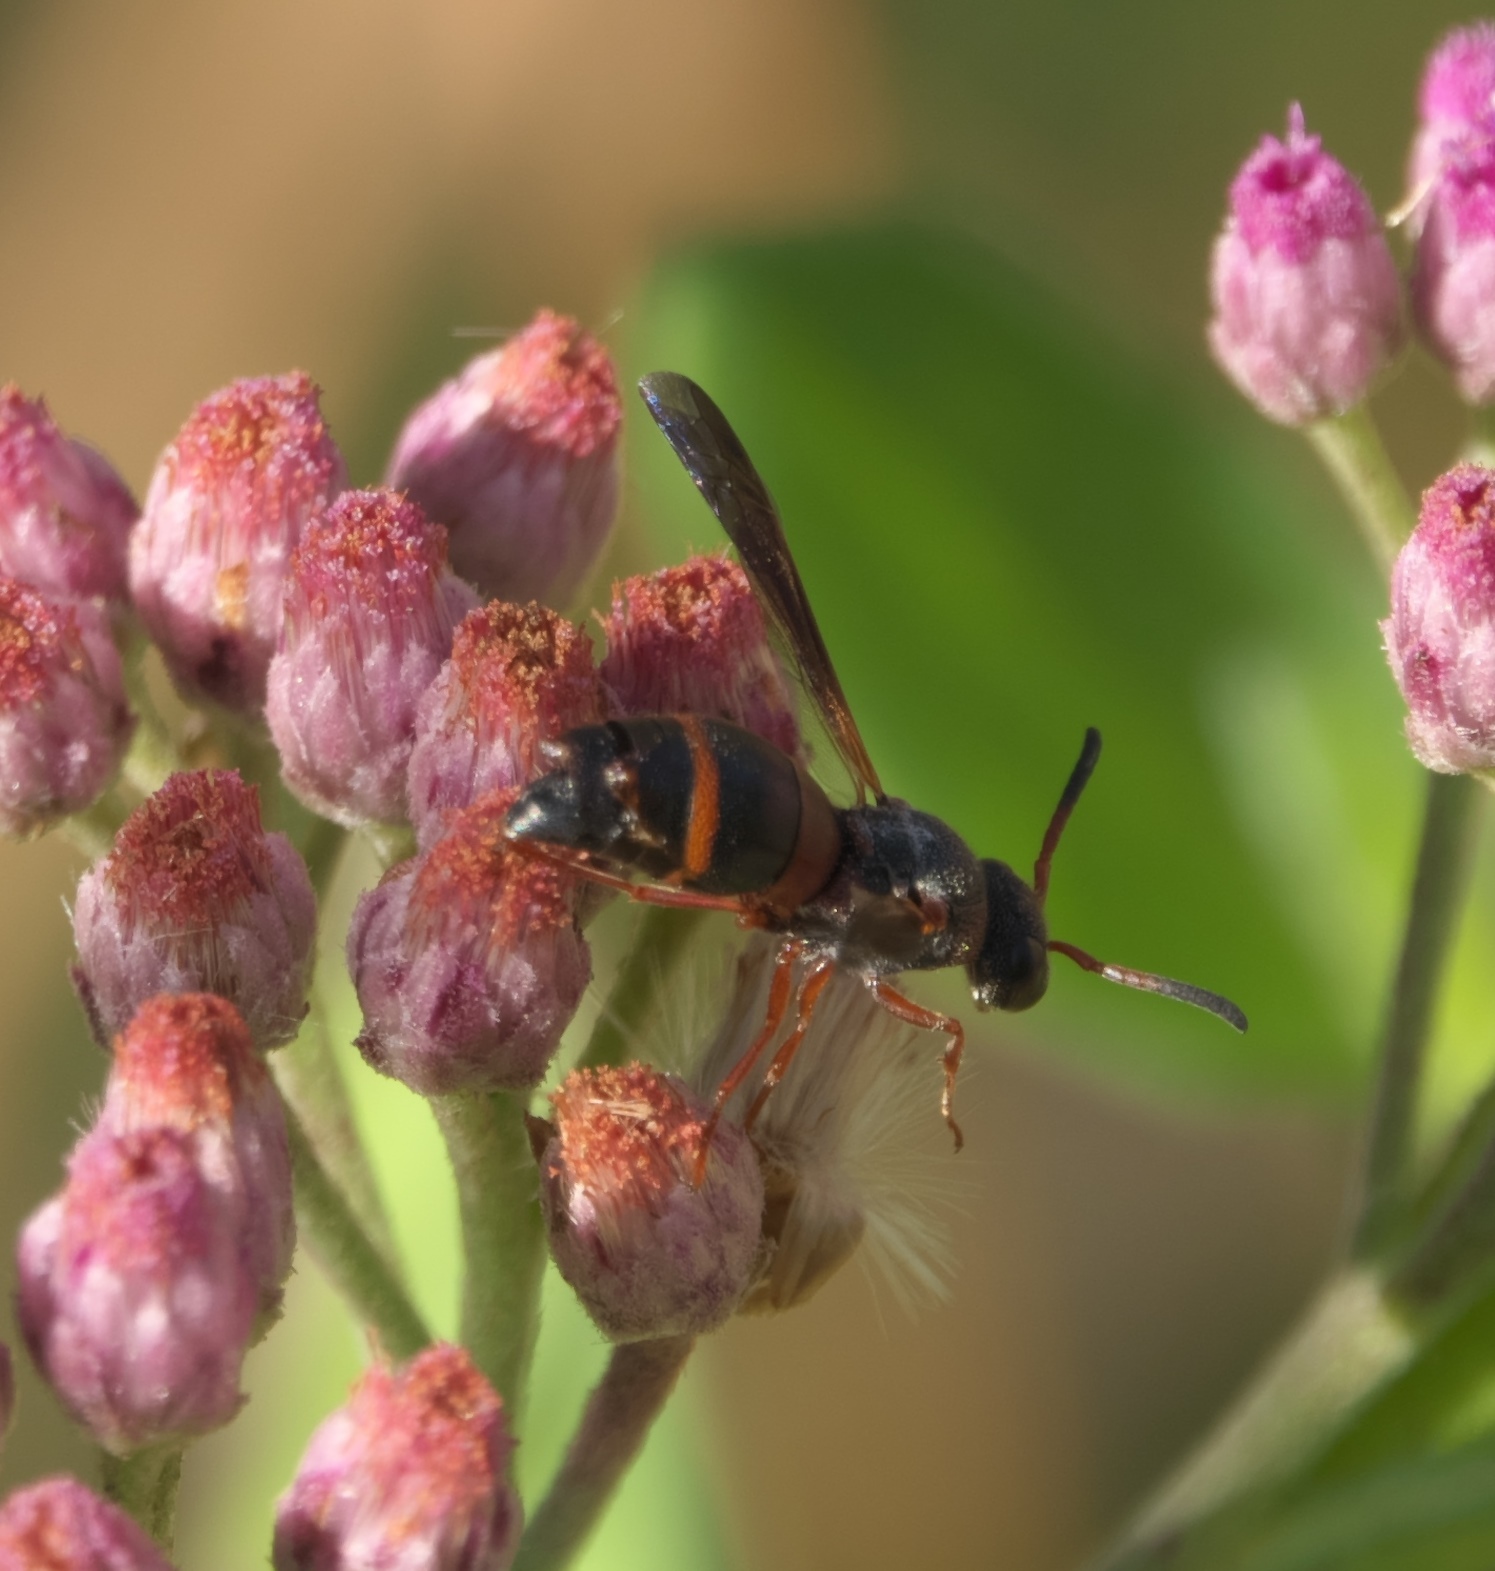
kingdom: Animalia
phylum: Arthropoda
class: Insecta
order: Hymenoptera
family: Eumenidae
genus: Pachodynerus
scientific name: Pachodynerus erynnis
